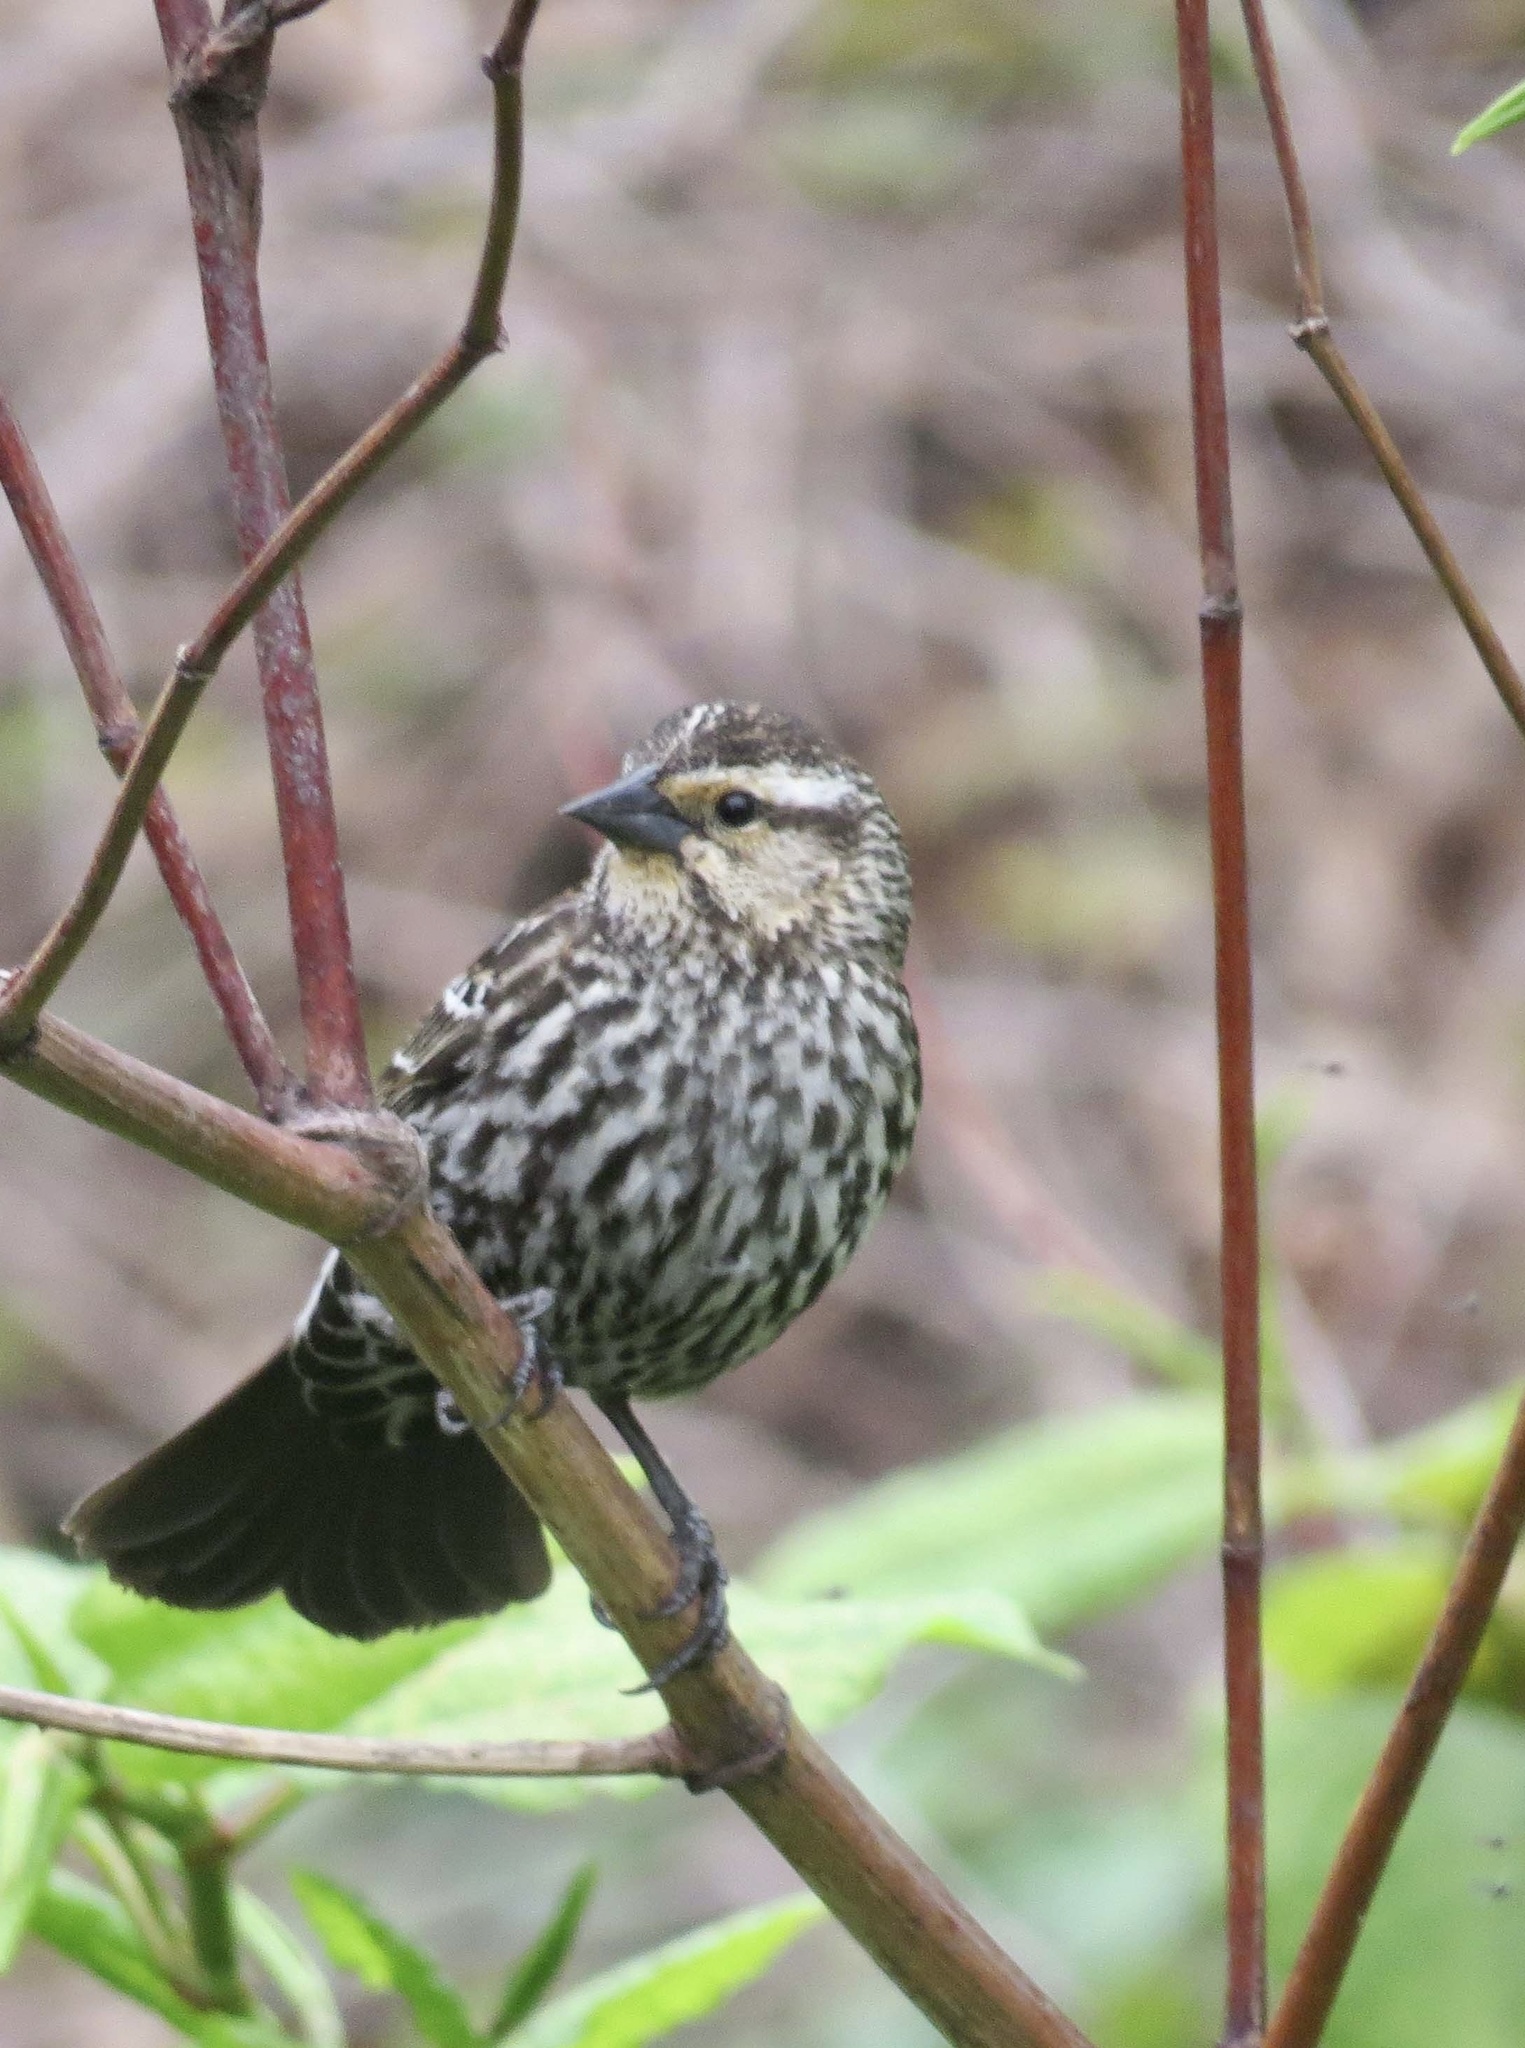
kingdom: Animalia
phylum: Chordata
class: Aves
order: Passeriformes
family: Icteridae
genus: Agelaius
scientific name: Agelaius phoeniceus
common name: Red-winged blackbird
